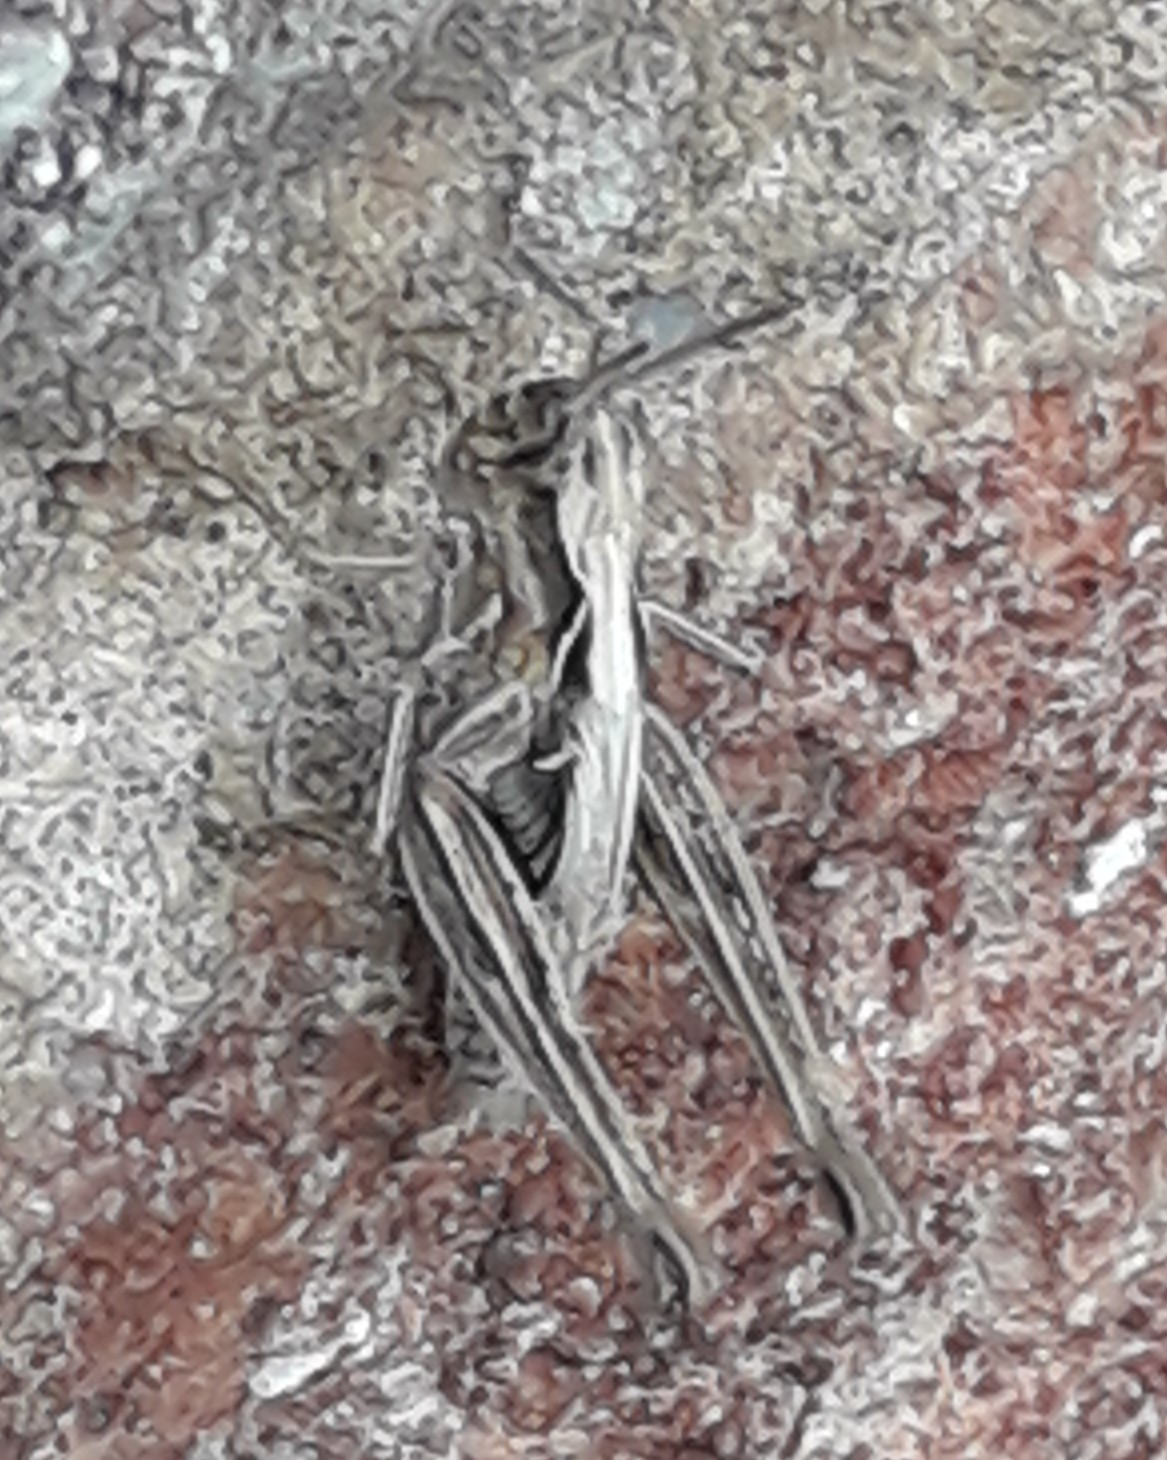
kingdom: Animalia
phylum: Arthropoda
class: Insecta
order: Orthoptera
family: Acrididae
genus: Chorthippus
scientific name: Chorthippus brunneus
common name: Field grasshopper
